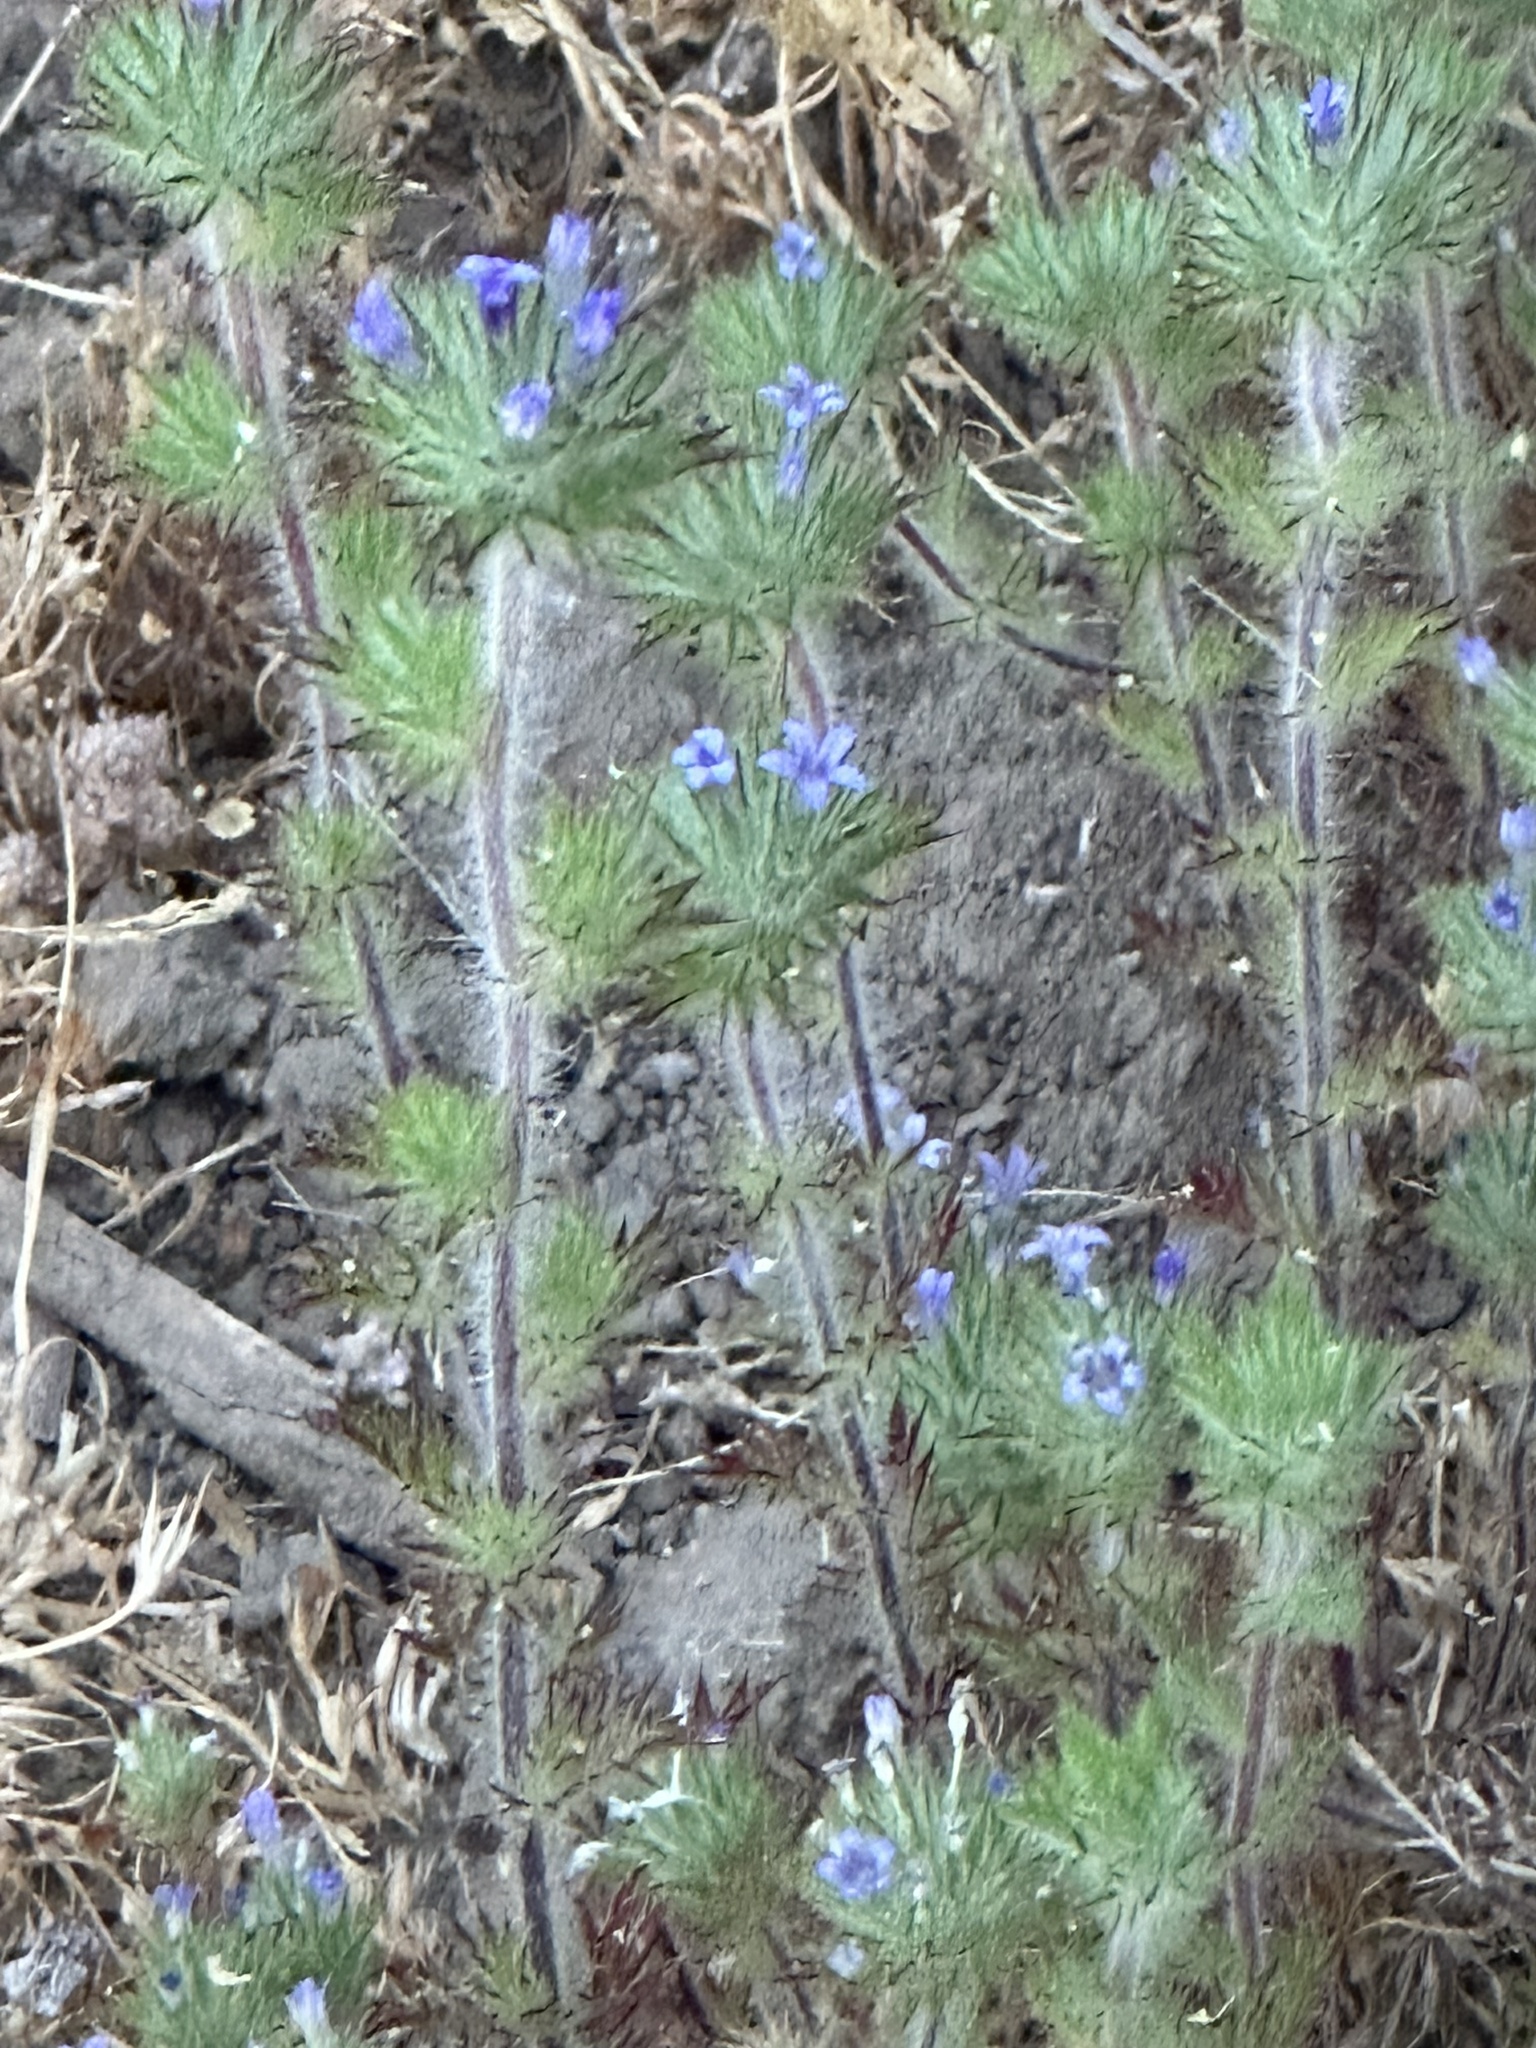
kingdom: Plantae
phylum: Tracheophyta
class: Magnoliopsida
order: Ericales
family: Polemoniaceae
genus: Navarretia
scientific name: Navarretia squarrosa
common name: Skunkweed
